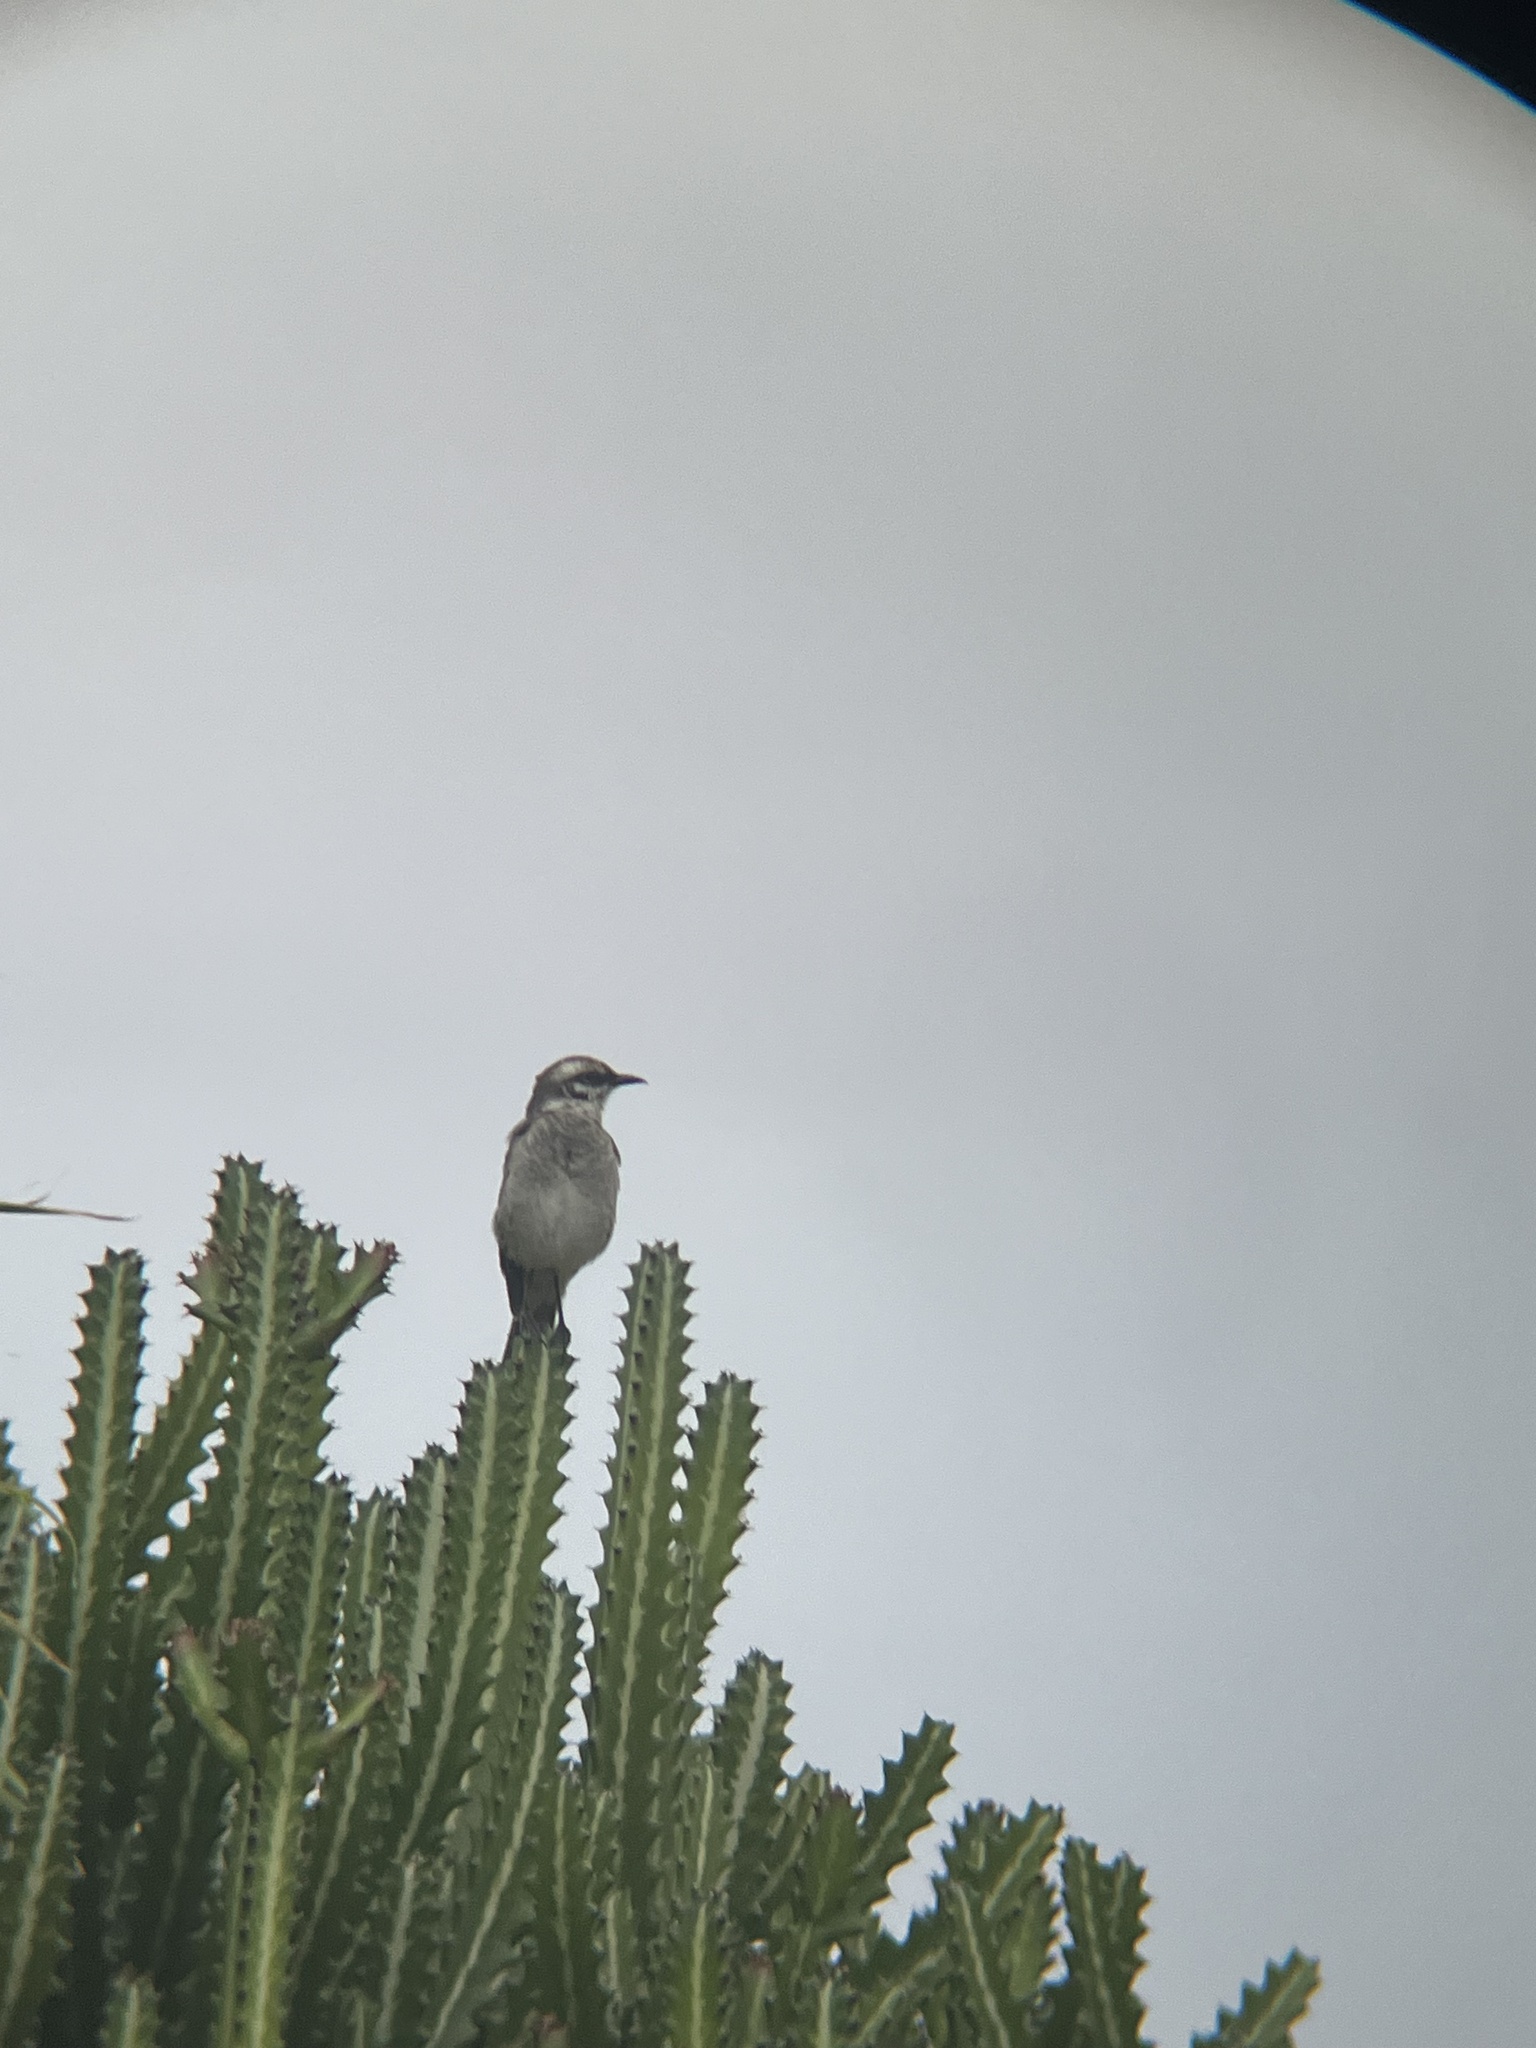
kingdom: Animalia
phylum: Chordata
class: Aves
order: Passeriformes
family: Mimidae
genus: Mimus
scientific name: Mimus longicaudatus
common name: Long-tailed mockingbird
